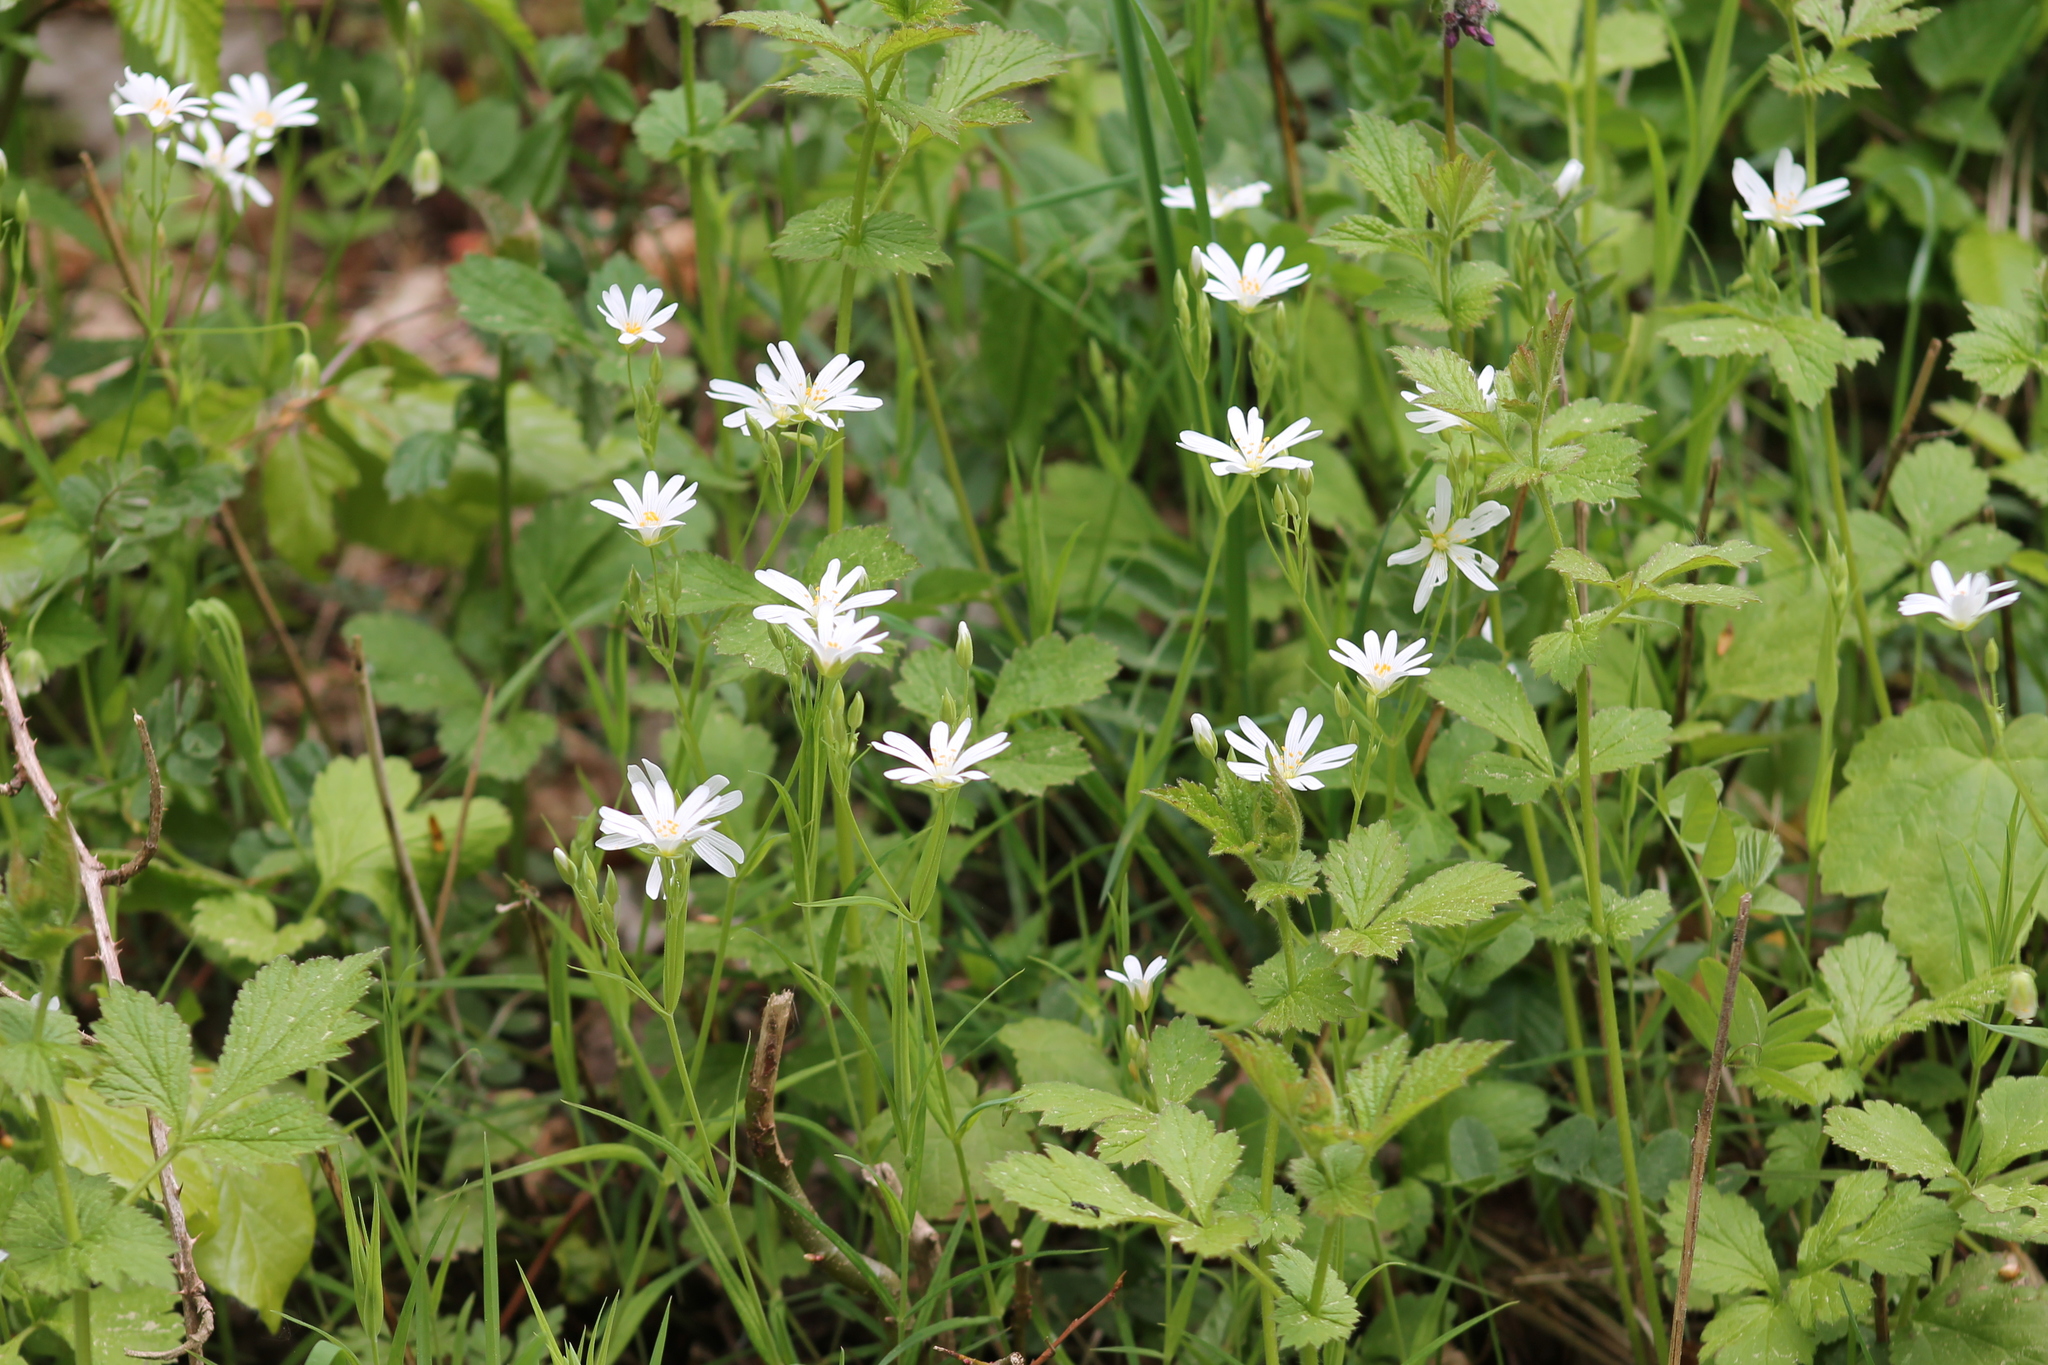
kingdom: Plantae
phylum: Tracheophyta
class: Magnoliopsida
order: Caryophyllales
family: Caryophyllaceae
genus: Rabelera
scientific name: Rabelera holostea
